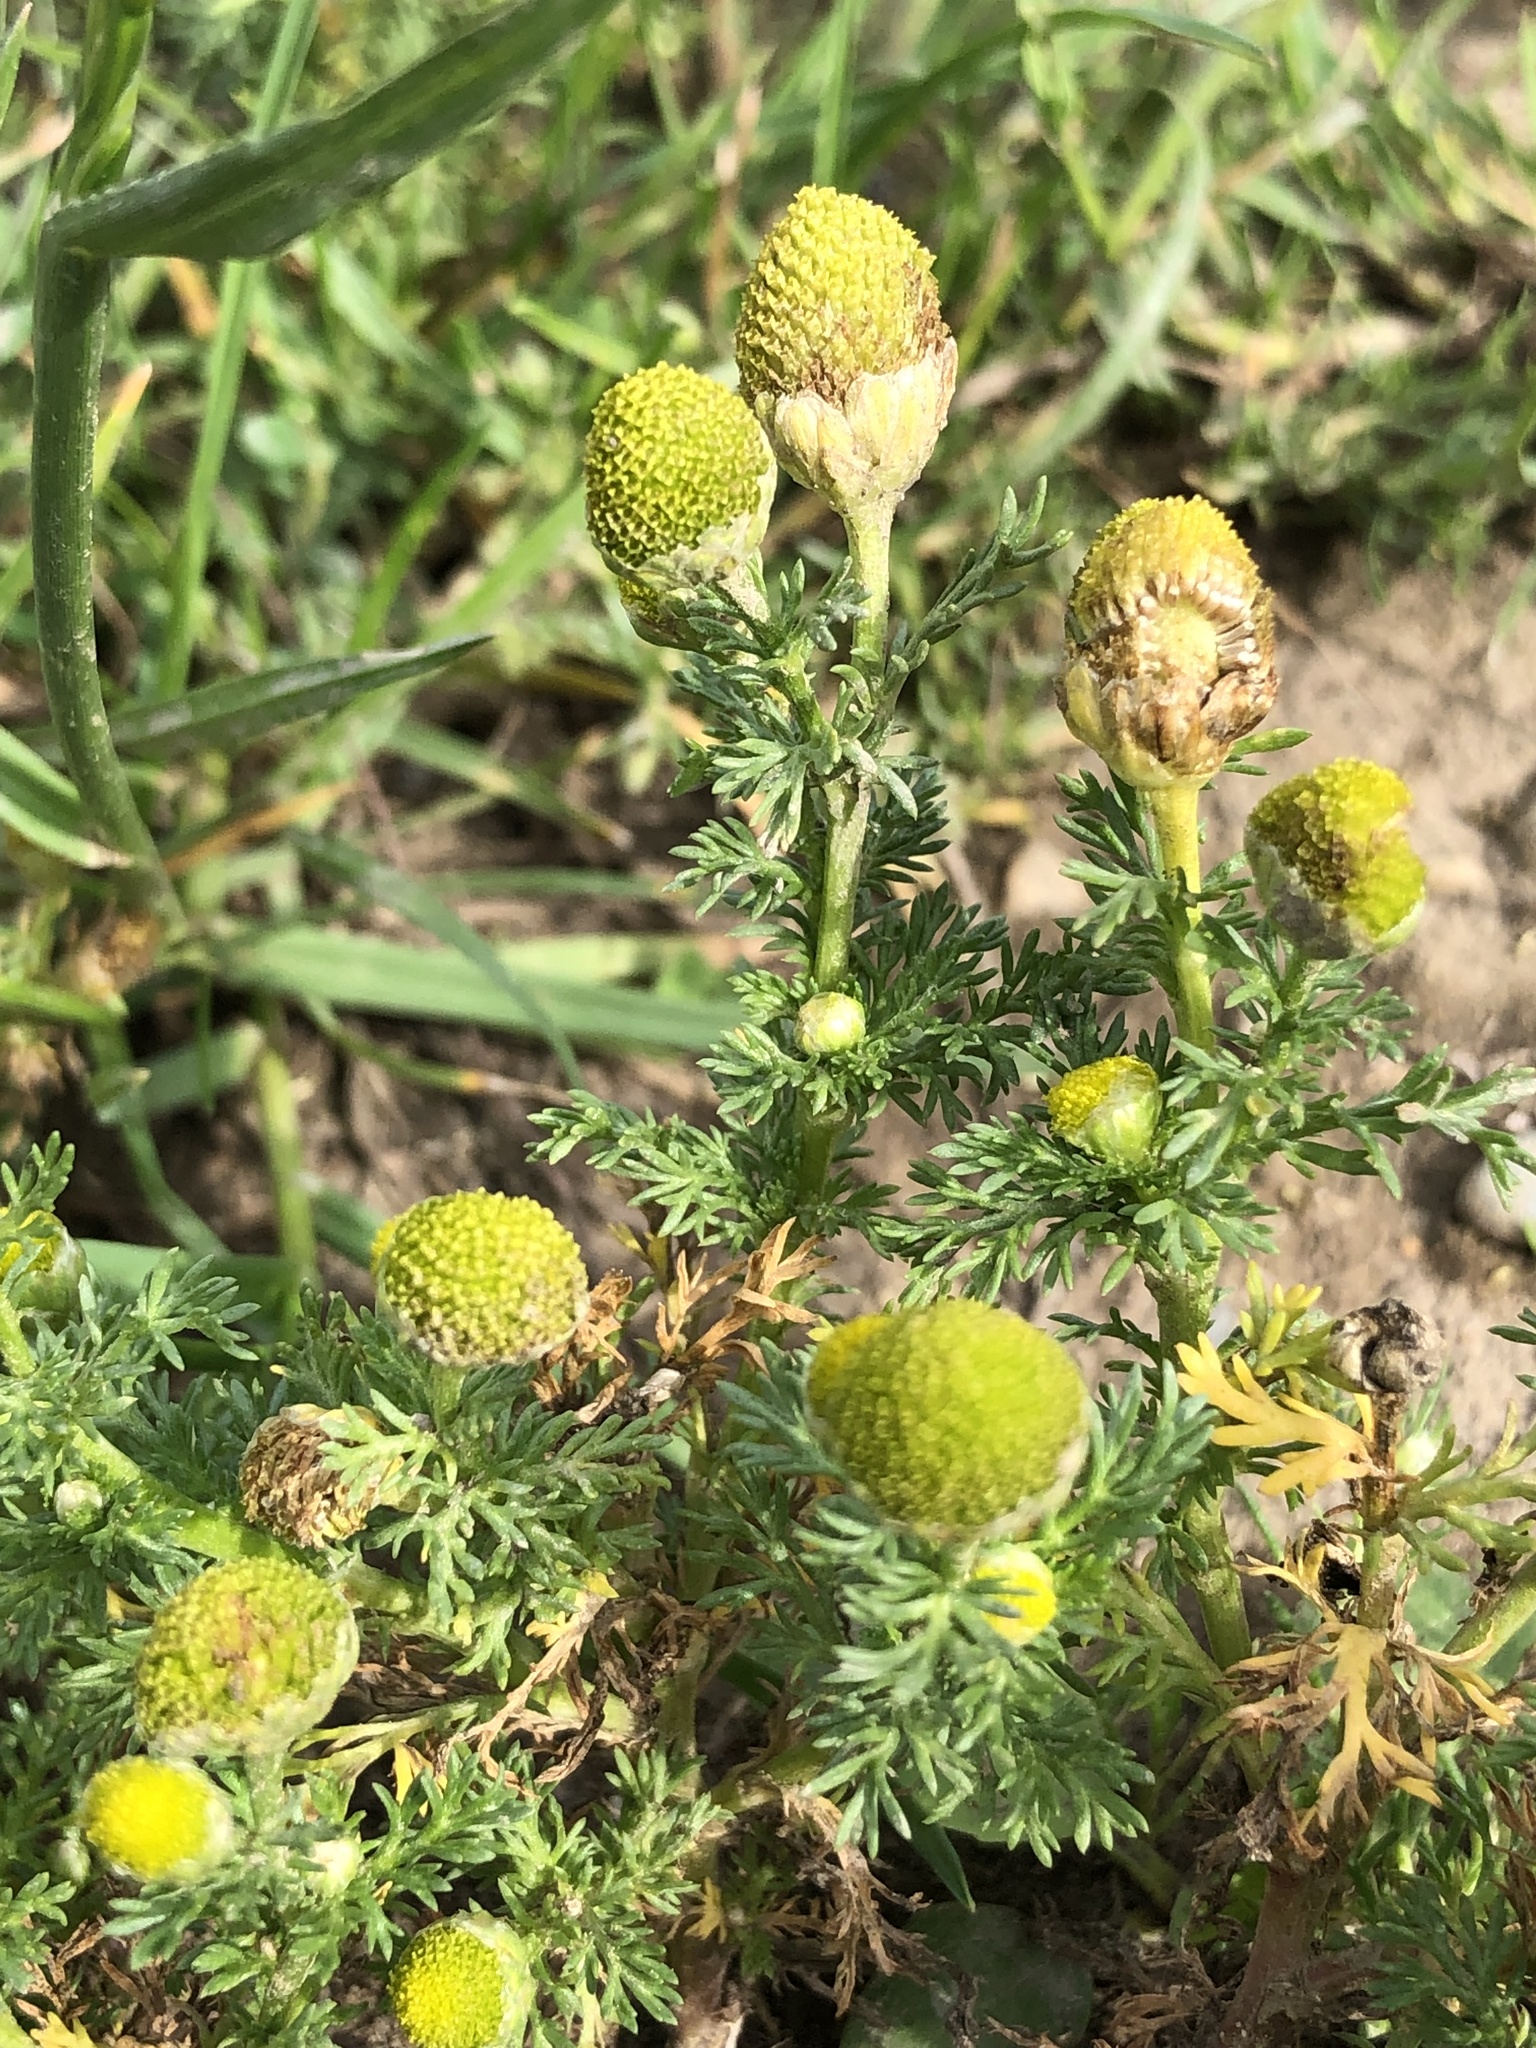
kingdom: Plantae
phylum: Tracheophyta
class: Magnoliopsida
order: Asterales
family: Asteraceae
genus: Matricaria
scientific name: Matricaria discoidea
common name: Disc mayweed
